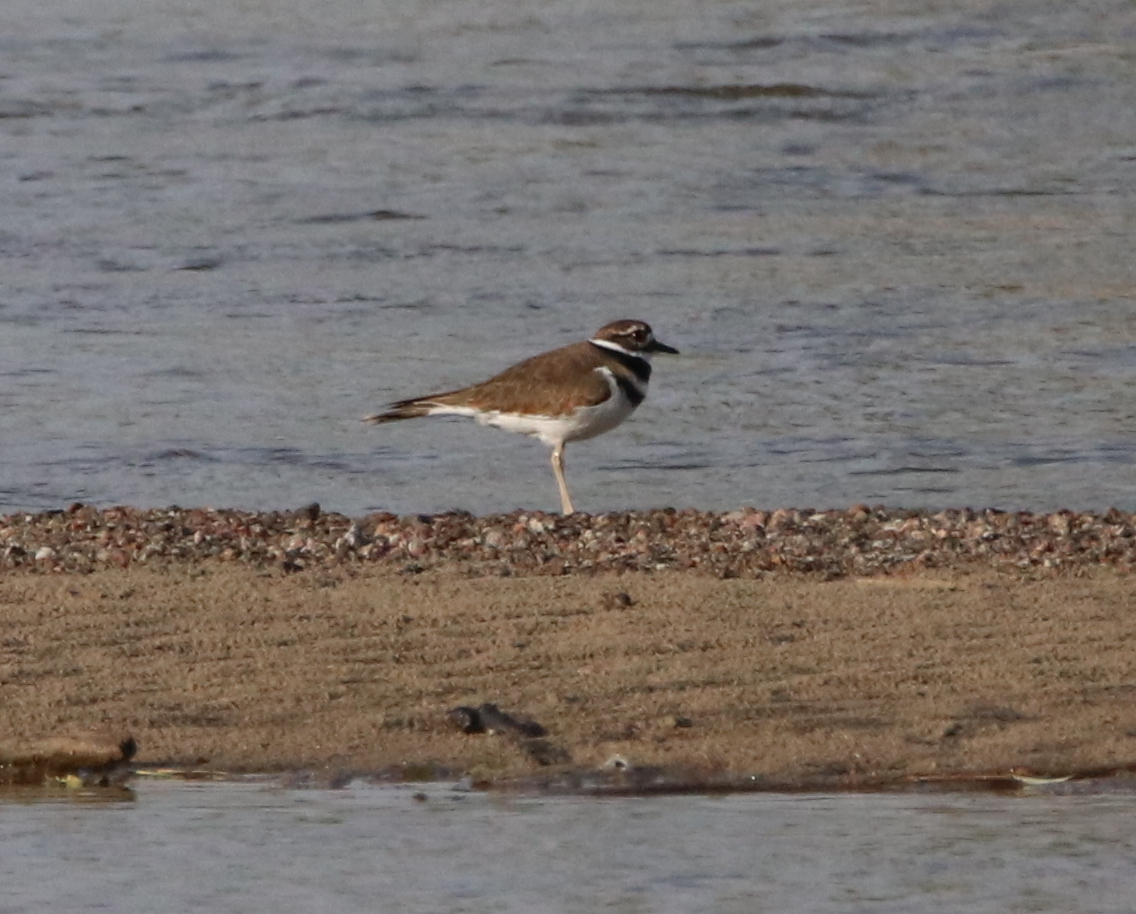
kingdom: Animalia
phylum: Chordata
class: Aves
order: Charadriiformes
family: Charadriidae
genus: Charadrius
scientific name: Charadrius vociferus
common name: Killdeer
